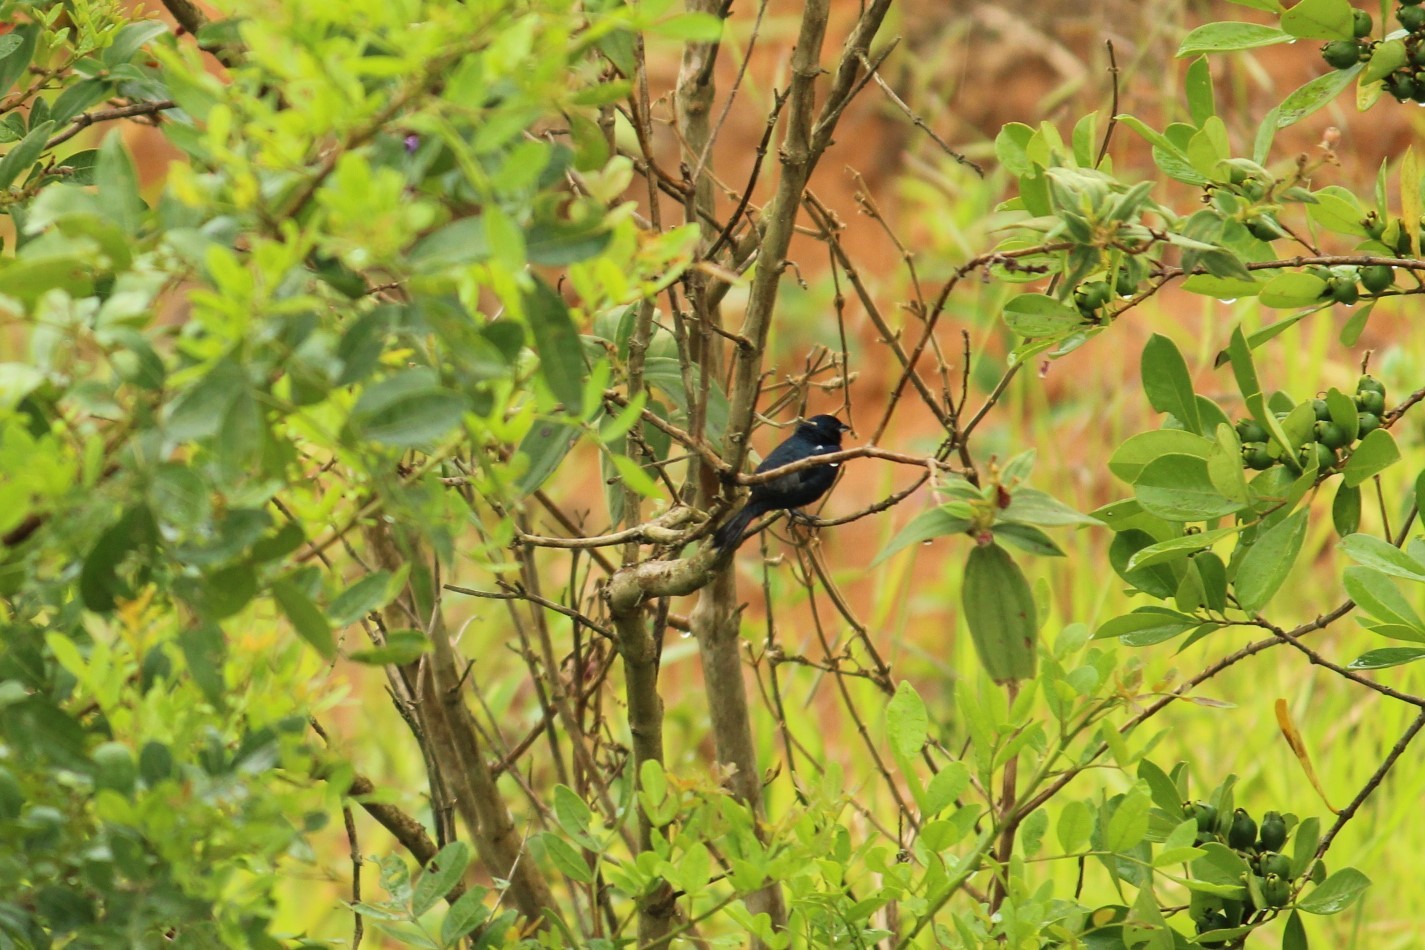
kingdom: Animalia
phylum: Chordata
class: Aves
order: Passeriformes
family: Cardinalidae
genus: Amaurospiza
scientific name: Amaurospiza moesta
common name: Blackish-blue seedeater
